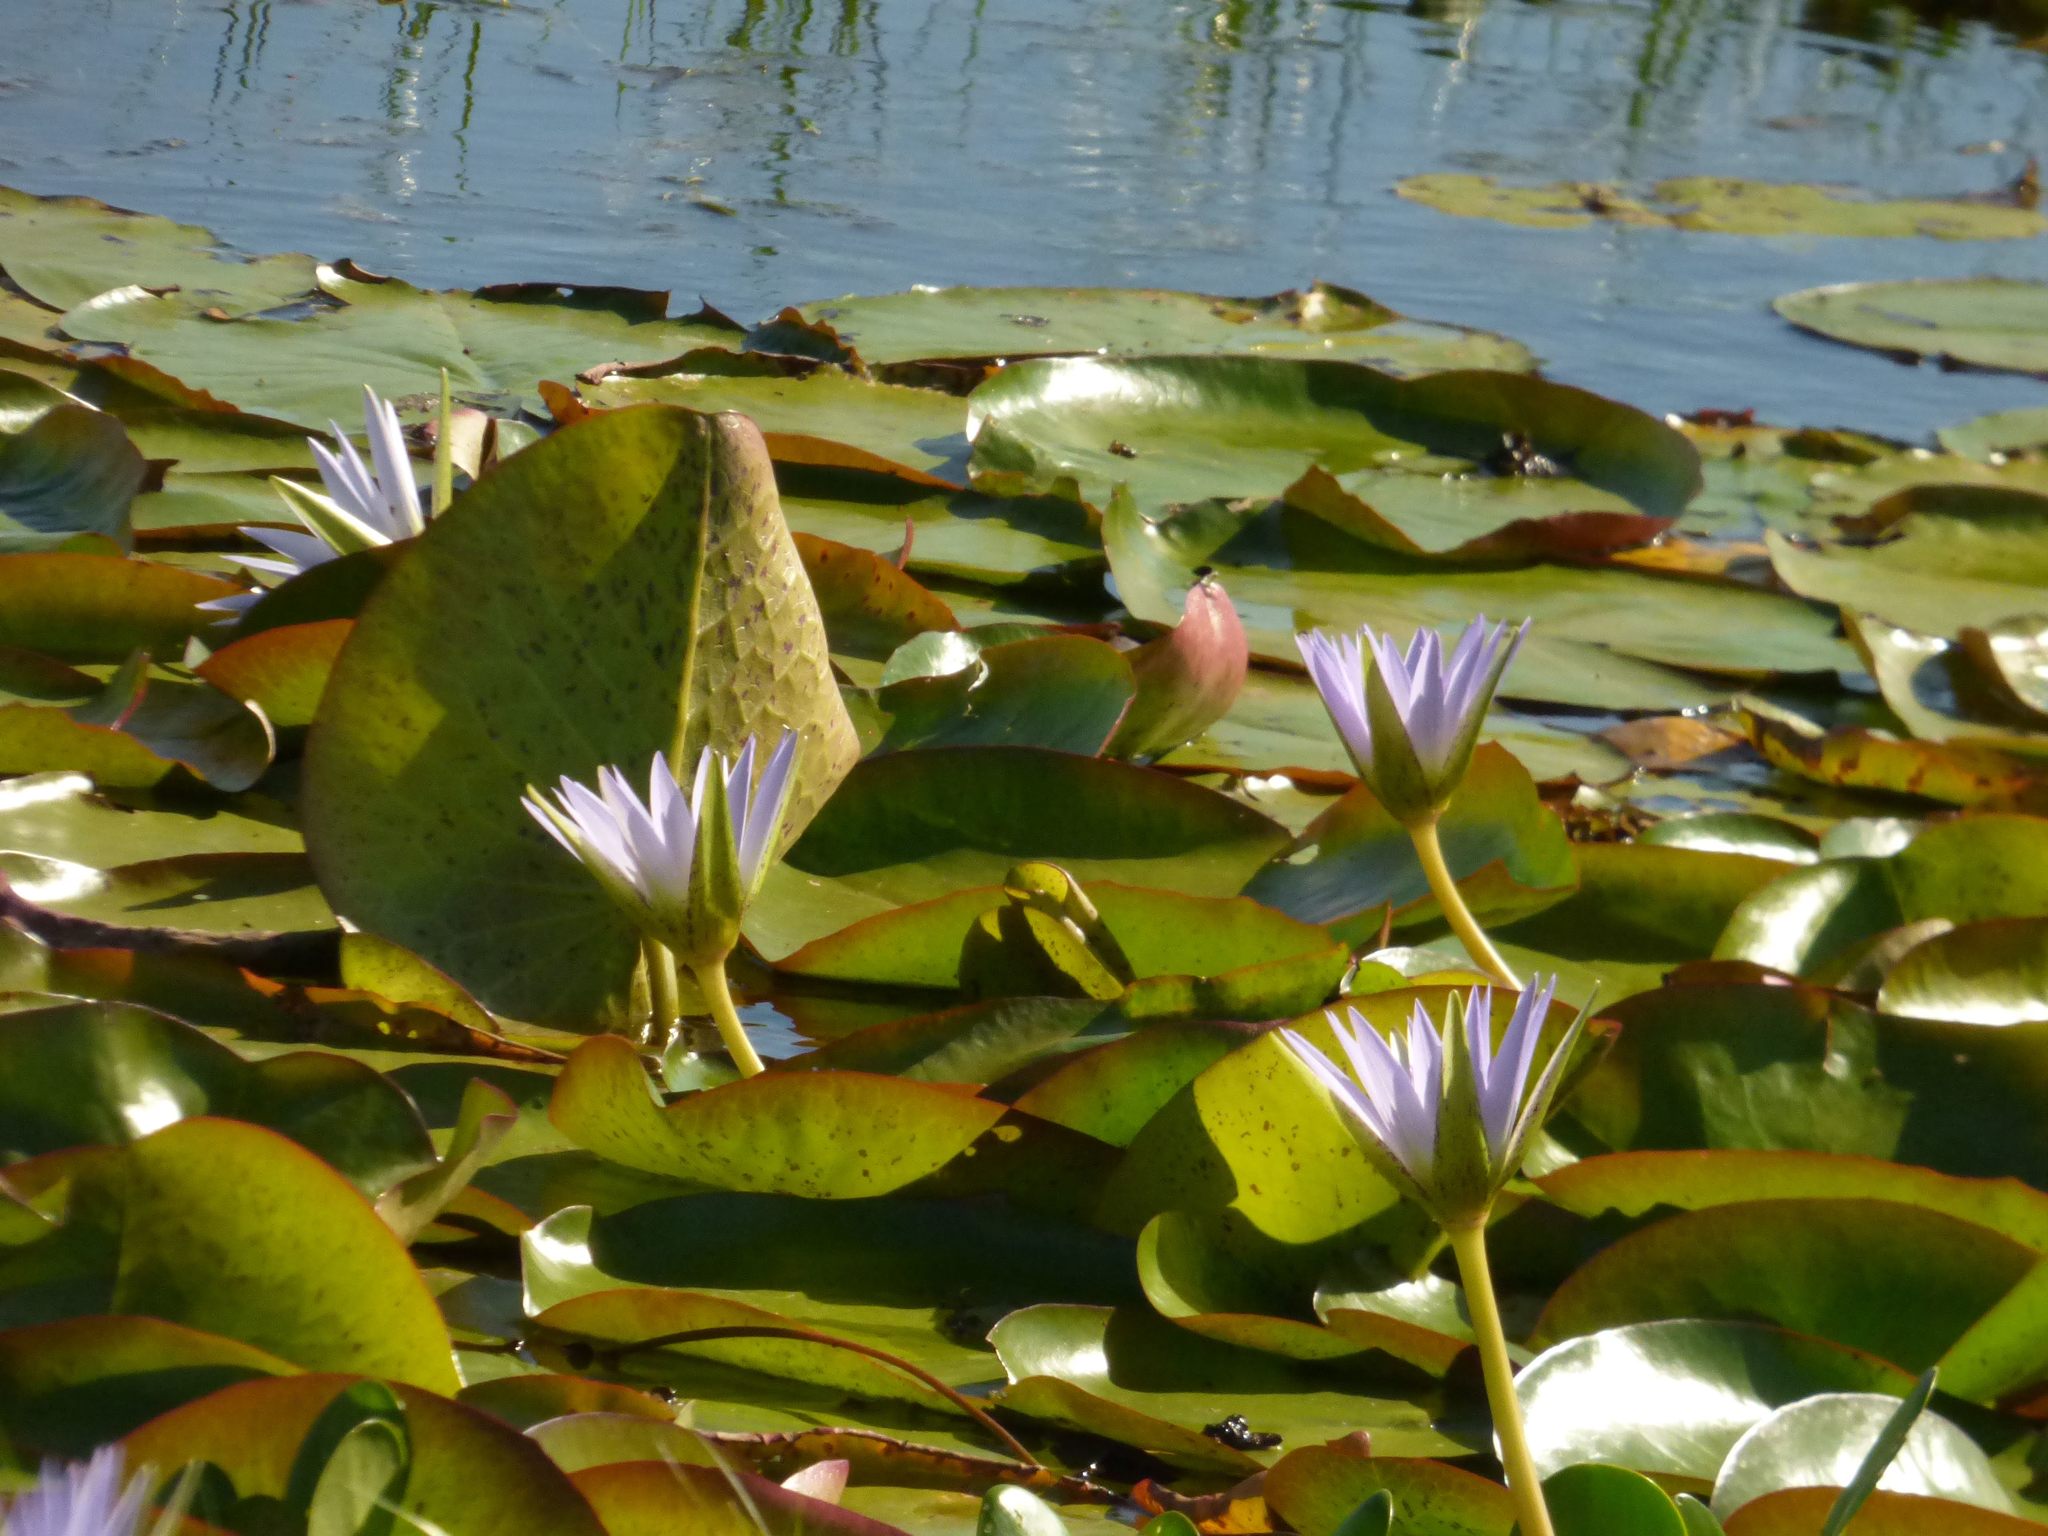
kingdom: Plantae
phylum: Tracheophyta
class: Magnoliopsida
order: Nymphaeales
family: Nymphaeaceae
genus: Nymphaea
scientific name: Nymphaea nouchali
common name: Blue lotus
